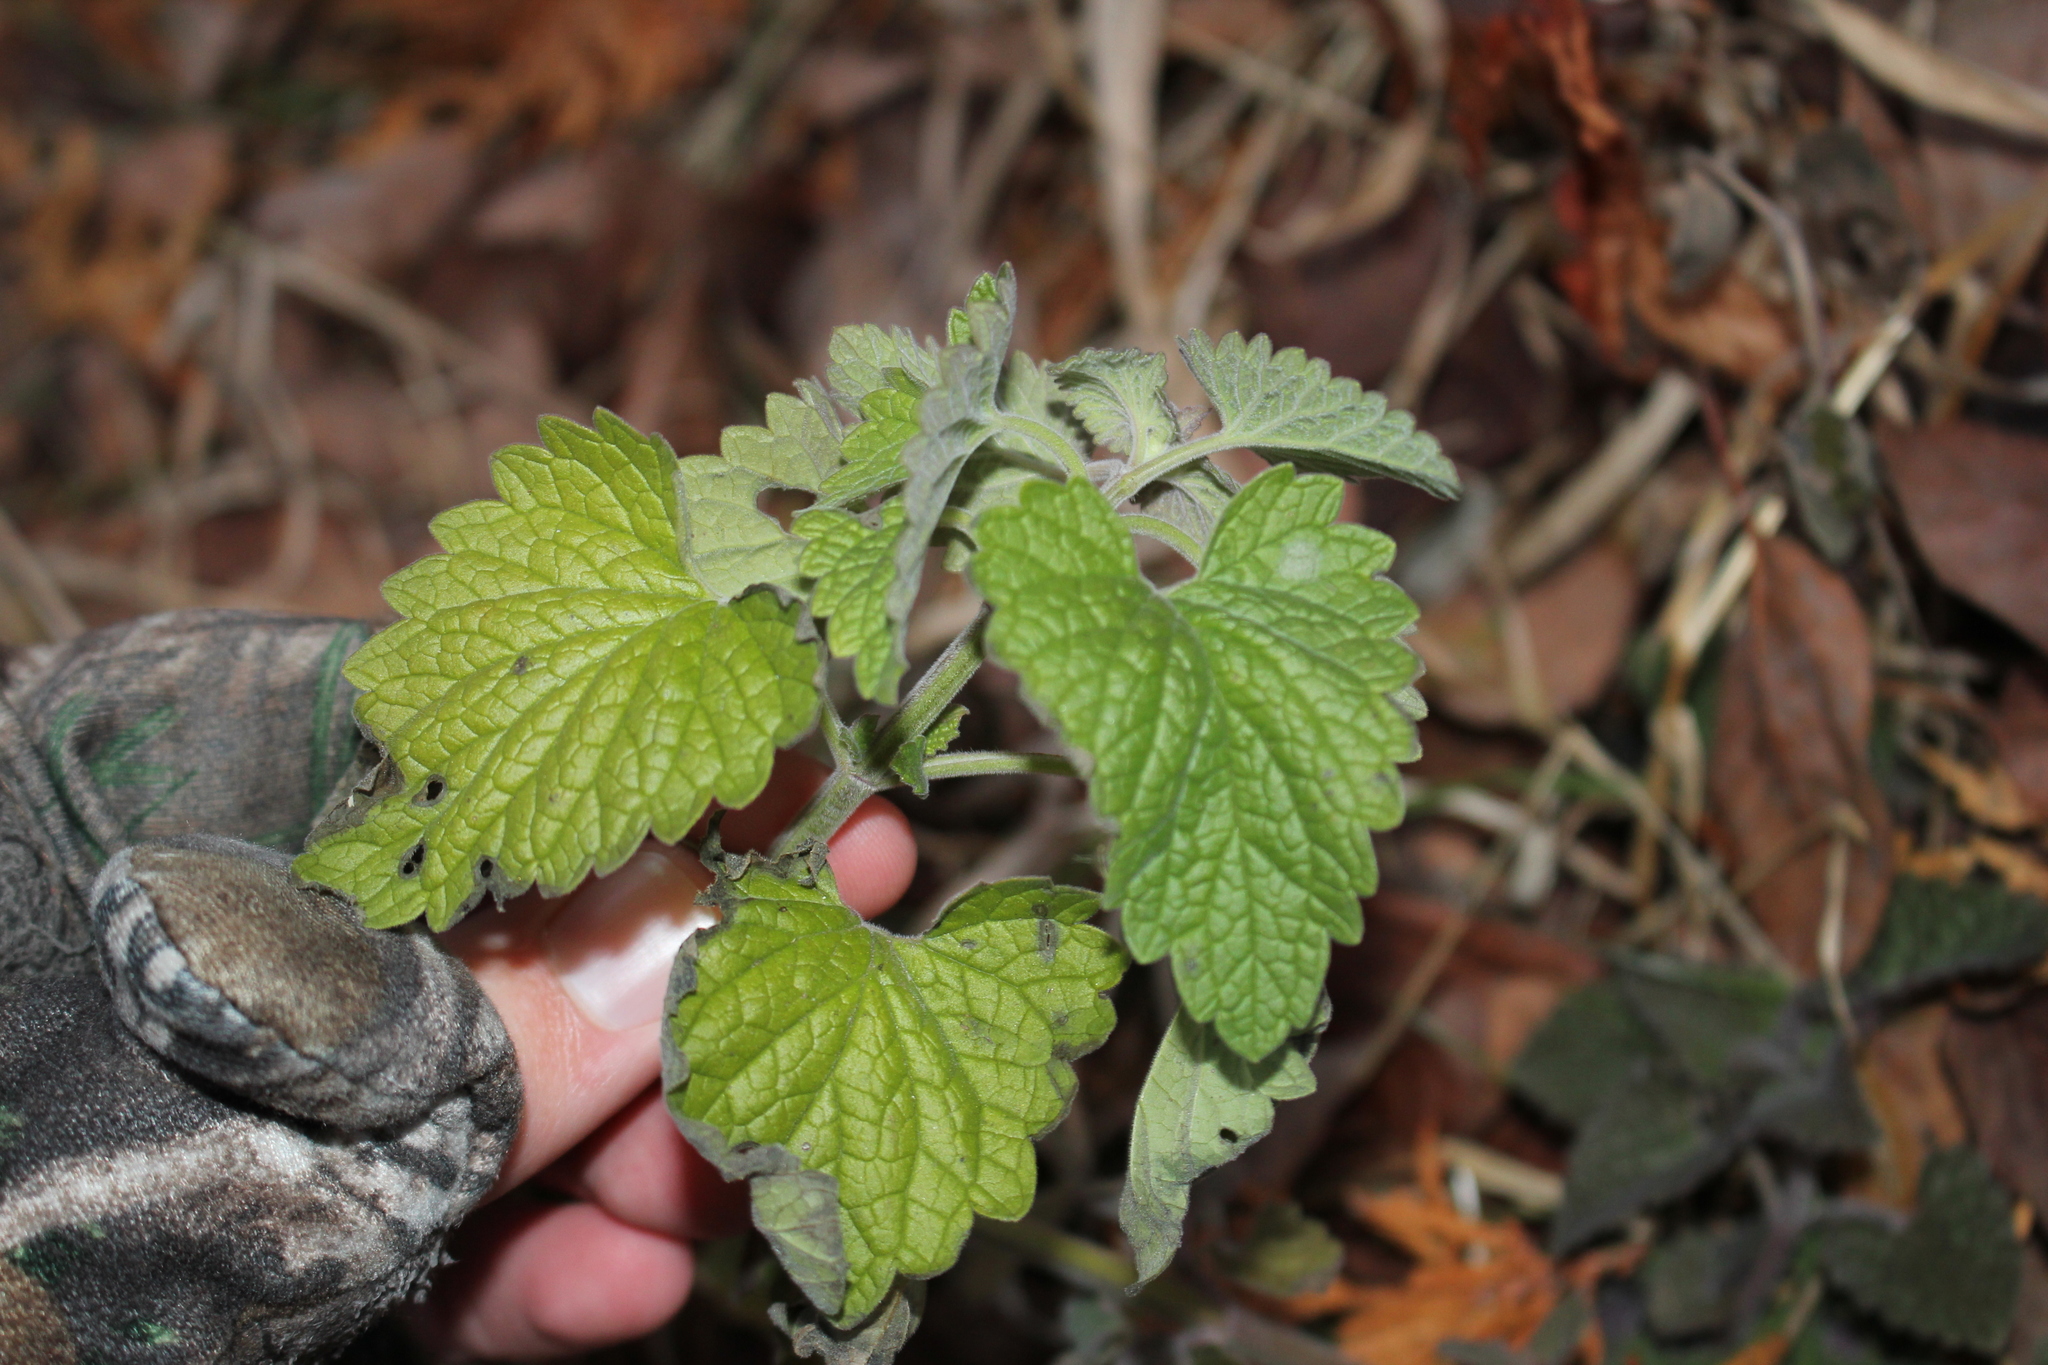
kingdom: Plantae
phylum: Tracheophyta
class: Magnoliopsida
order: Lamiales
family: Lamiaceae
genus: Nepeta
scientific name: Nepeta cataria
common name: Catnip
